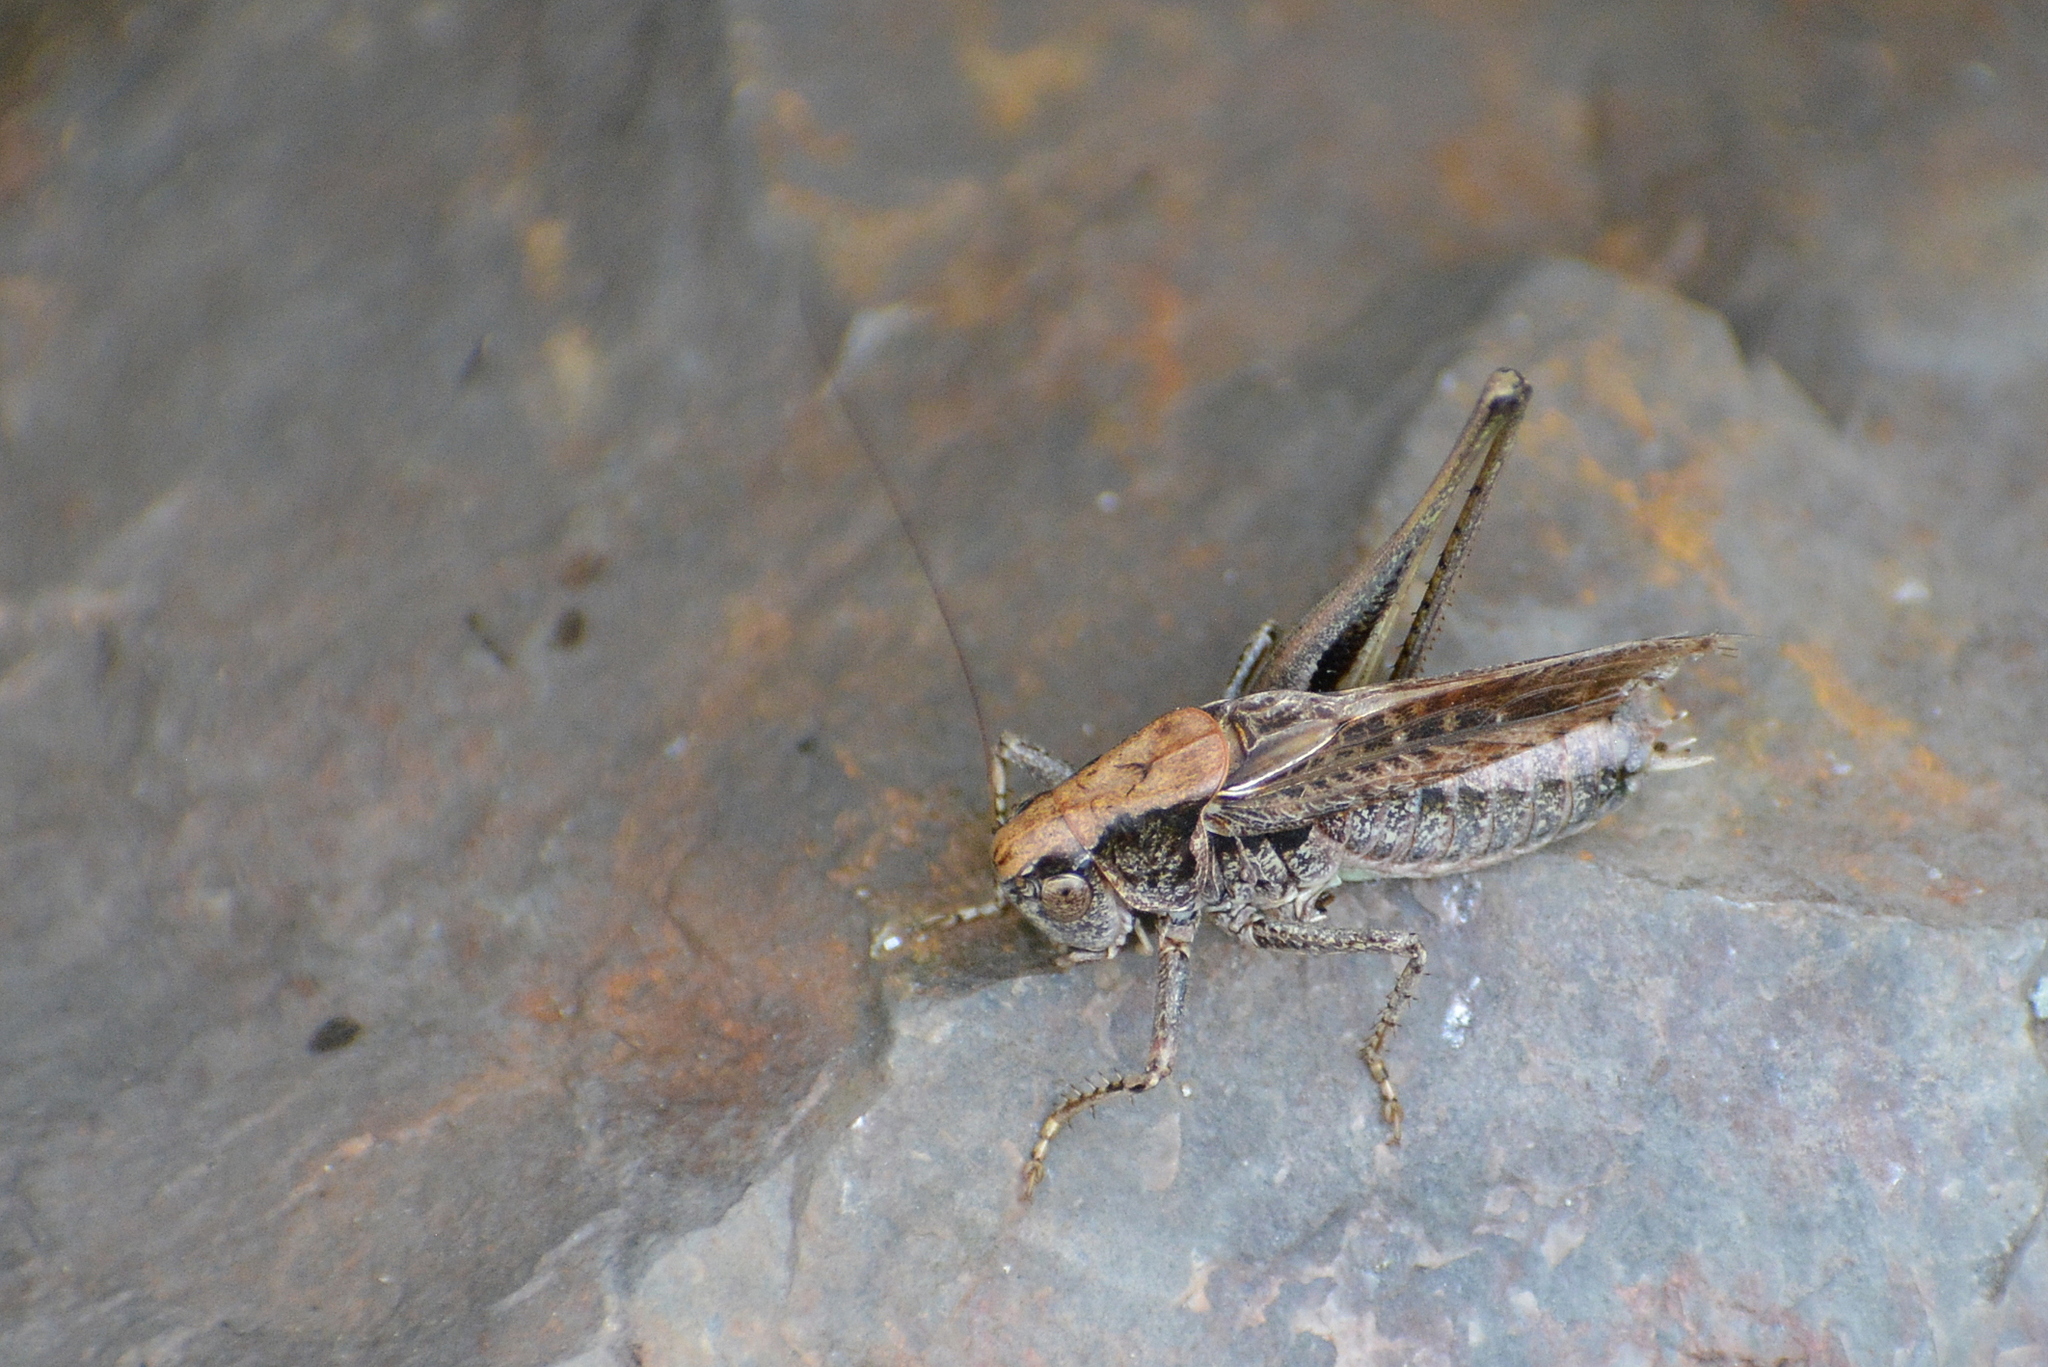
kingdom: Animalia
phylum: Arthropoda
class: Insecta
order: Orthoptera
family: Tettigoniidae
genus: Platycleis
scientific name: Platycleis albopunctata
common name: Grey bush-cricket
